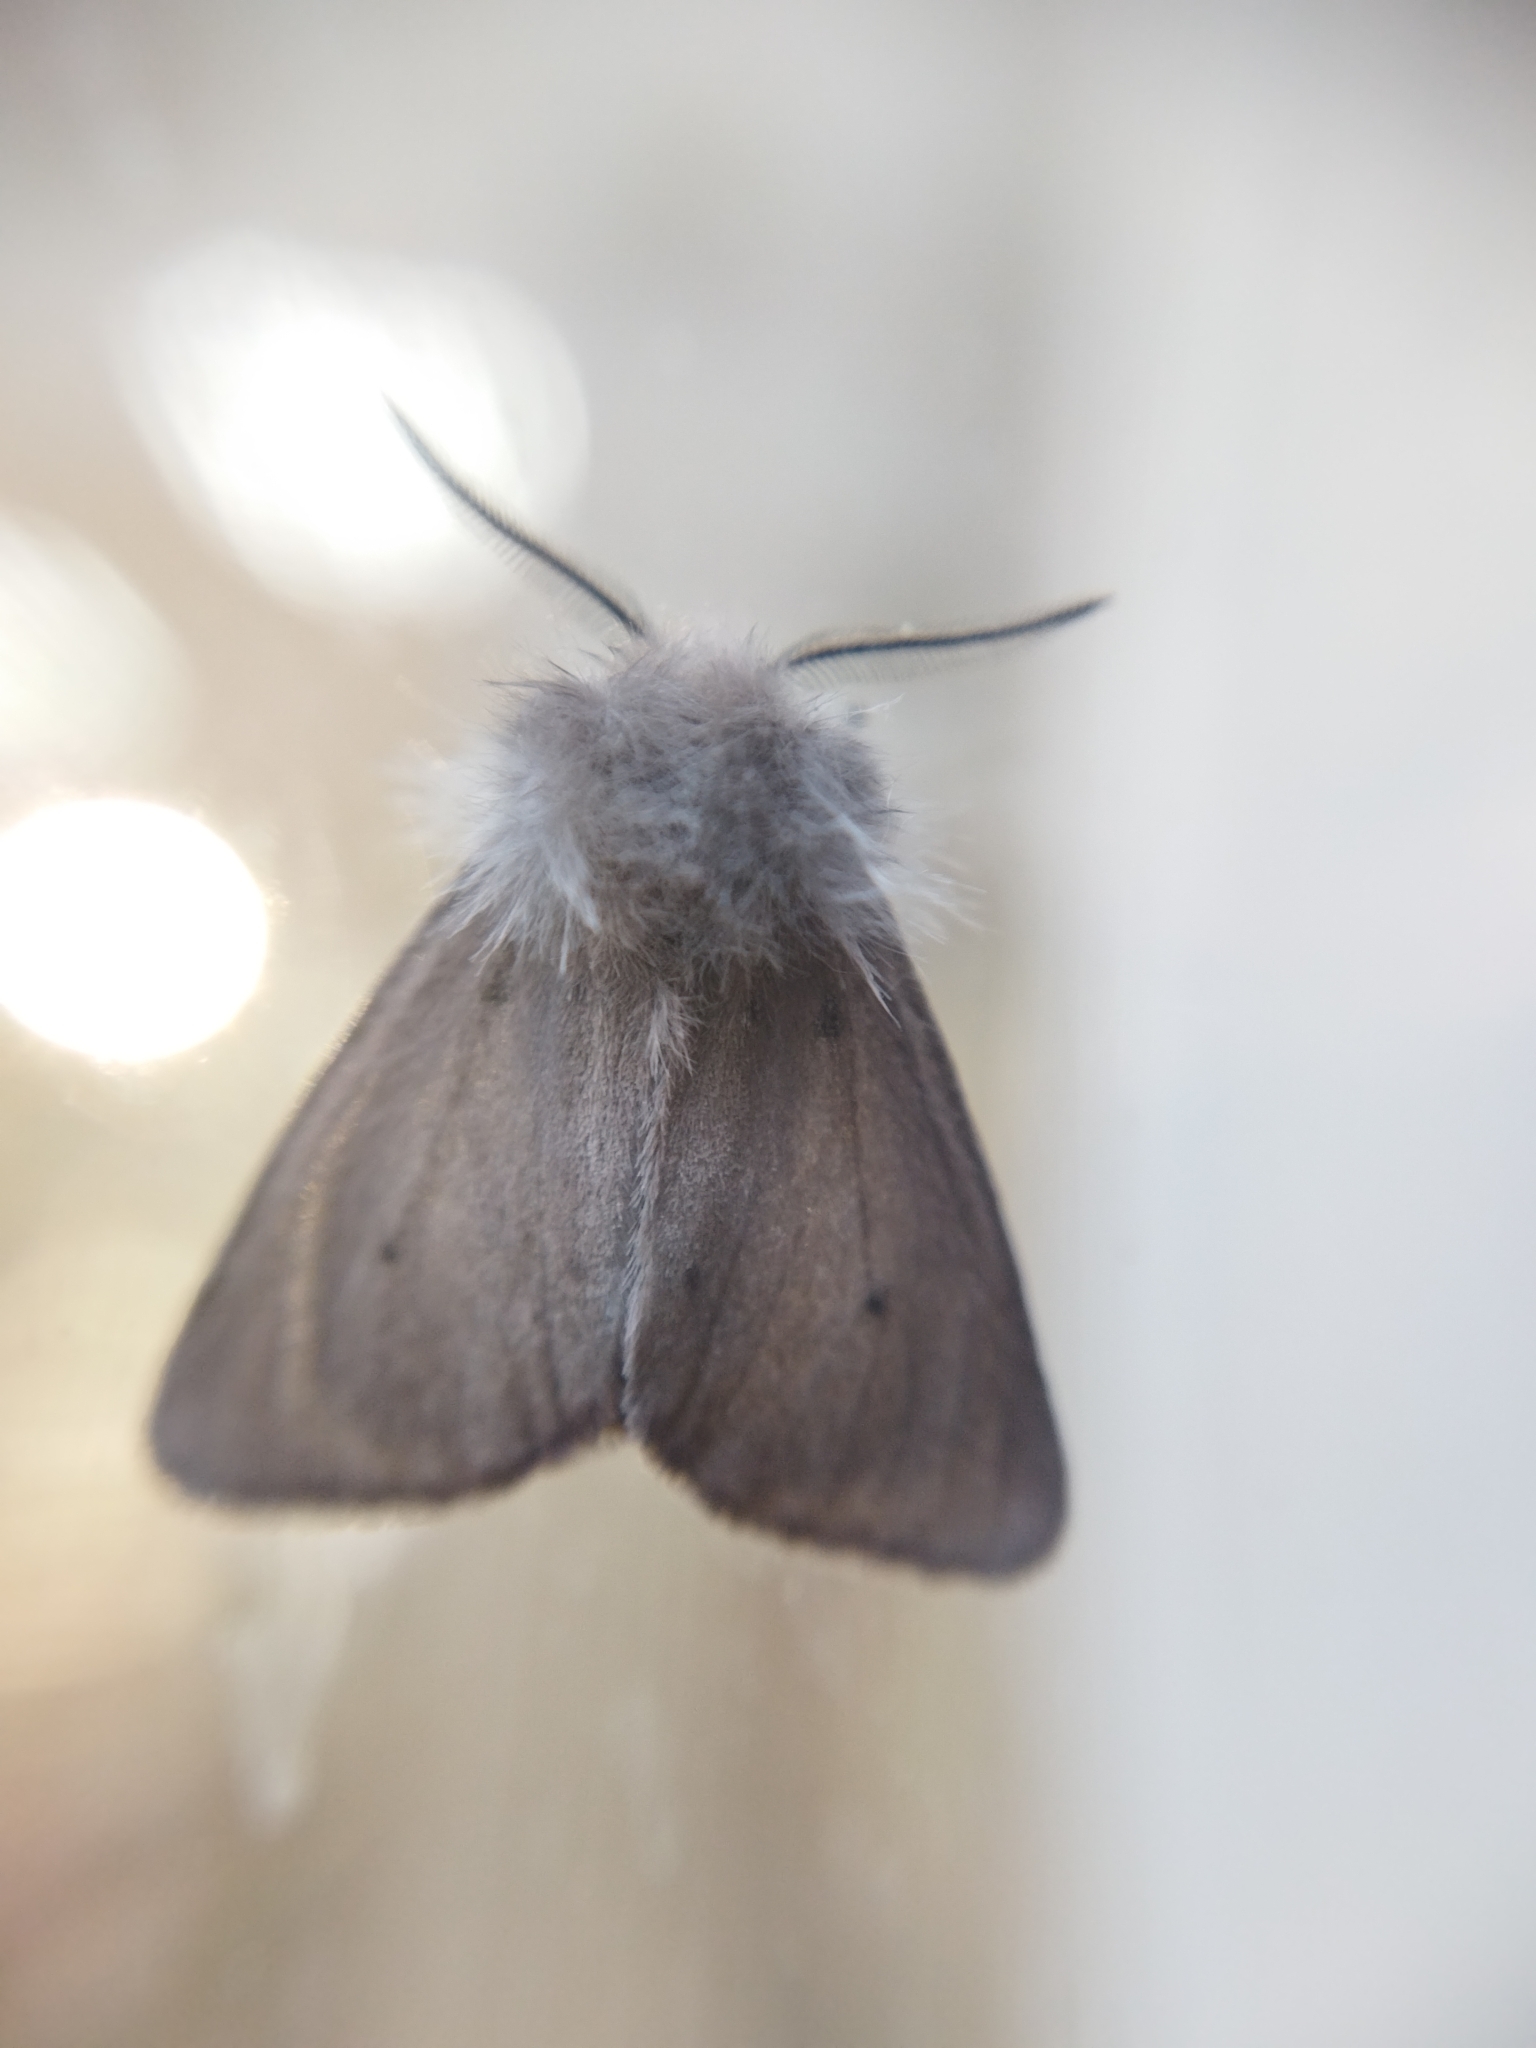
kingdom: Animalia
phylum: Arthropoda
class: Insecta
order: Lepidoptera
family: Erebidae
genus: Diaphora
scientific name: Diaphora mendica
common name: Muslin moth
